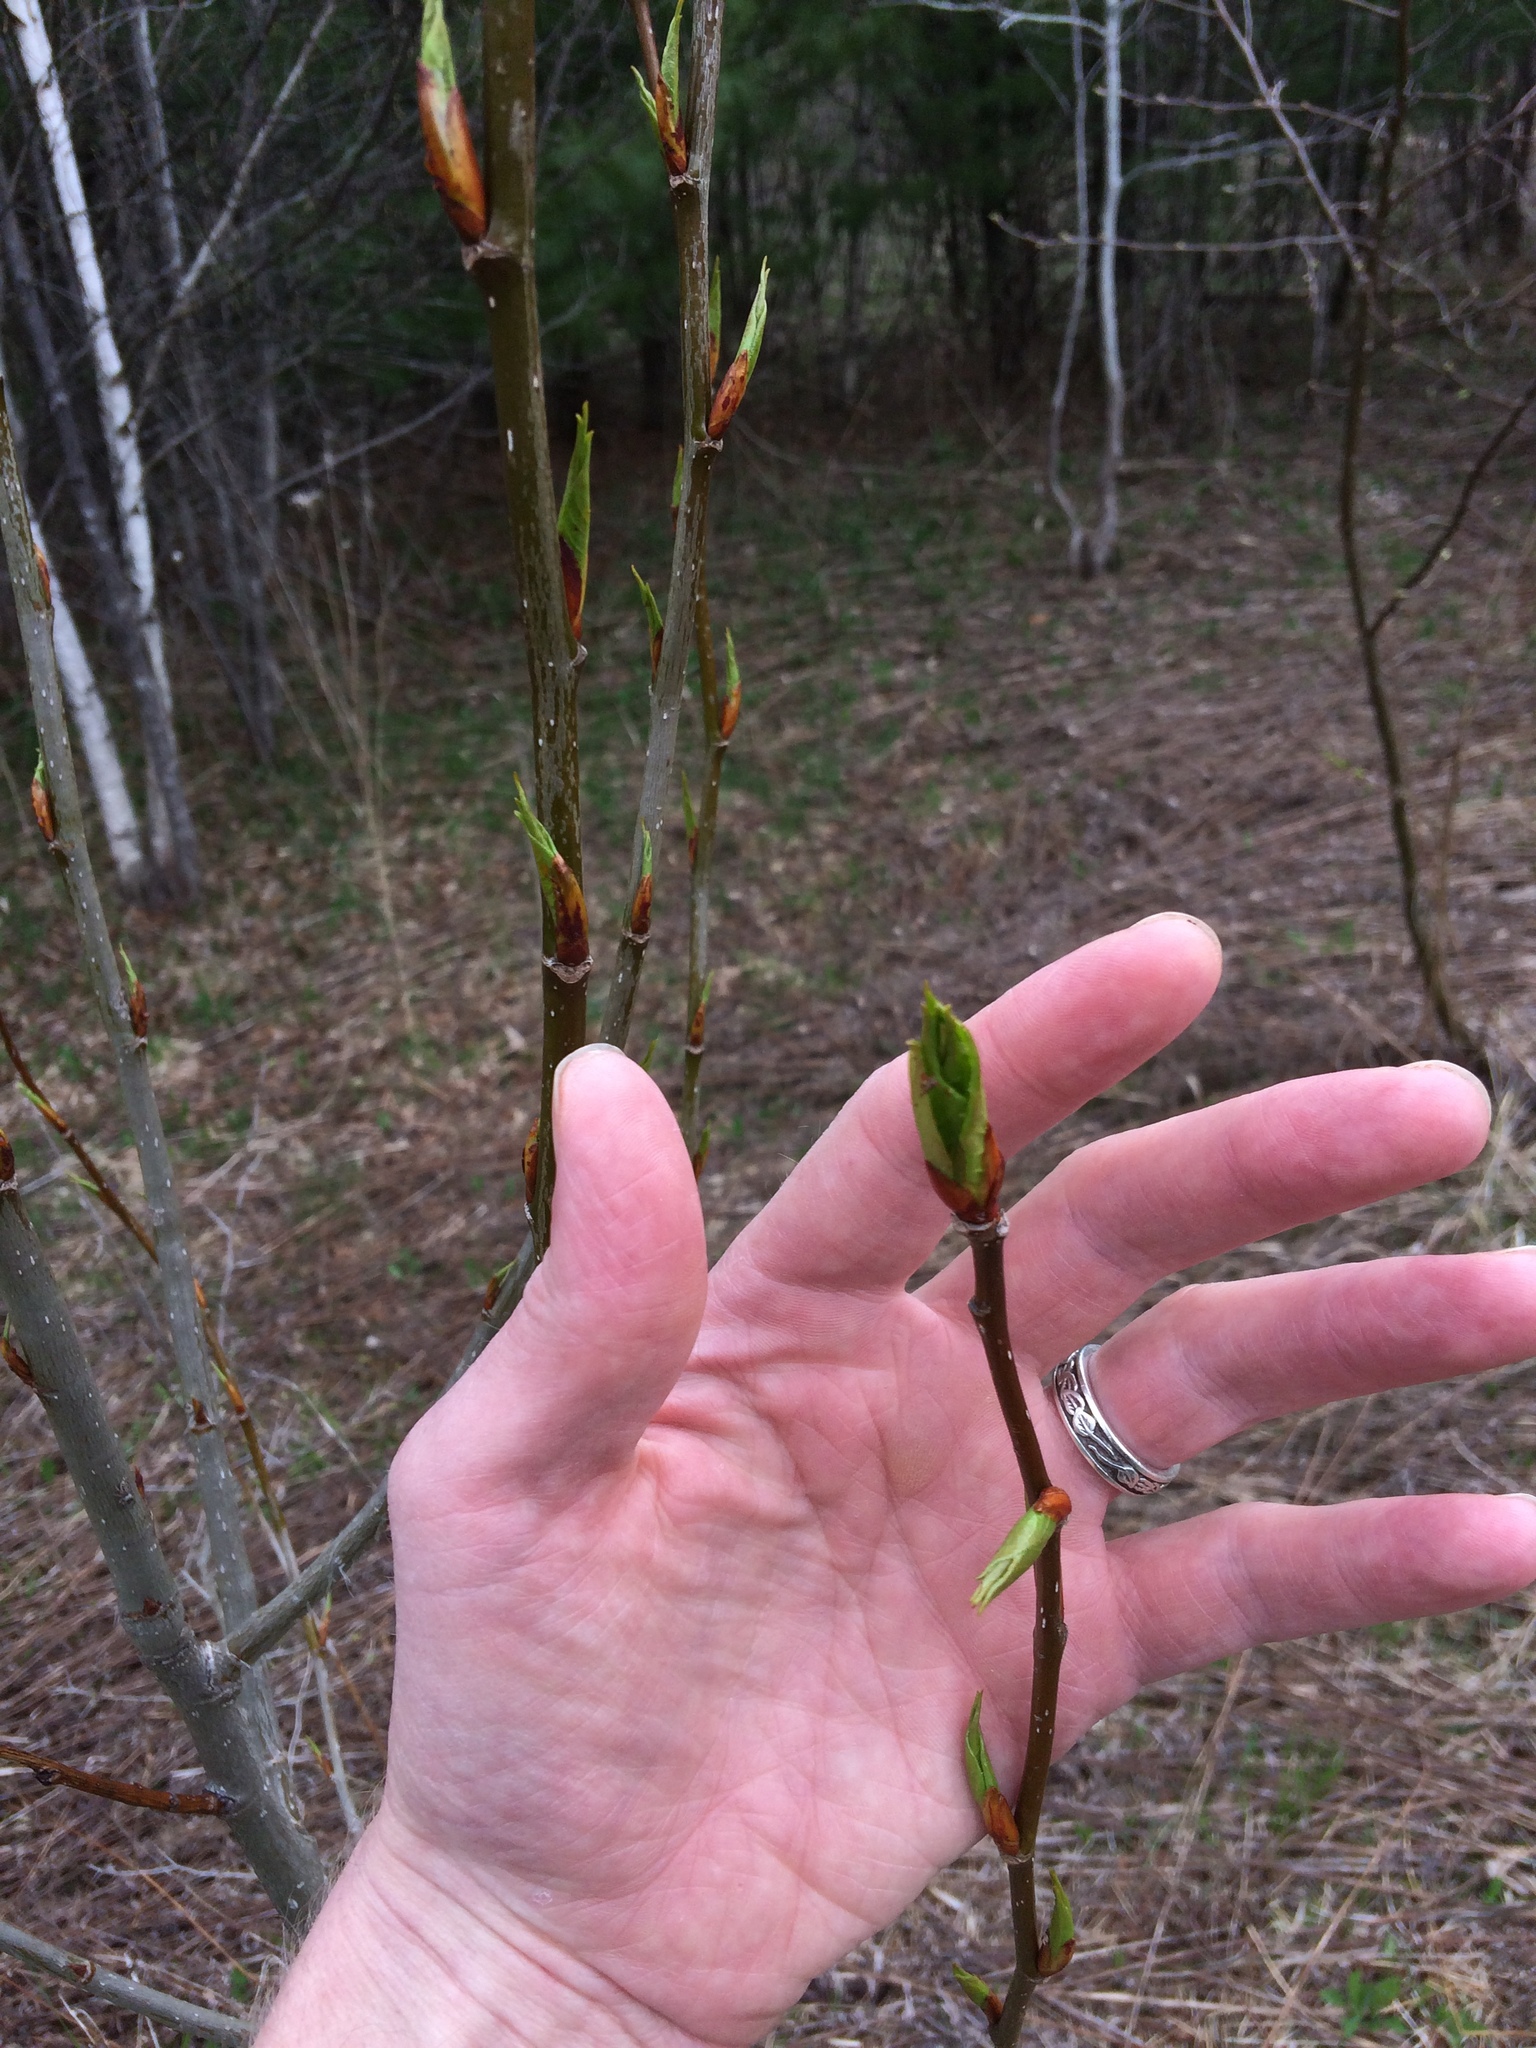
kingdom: Plantae
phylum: Tracheophyta
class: Magnoliopsida
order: Malpighiales
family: Salicaceae
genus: Populus
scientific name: Populus balsamifera
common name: Balsam poplar
